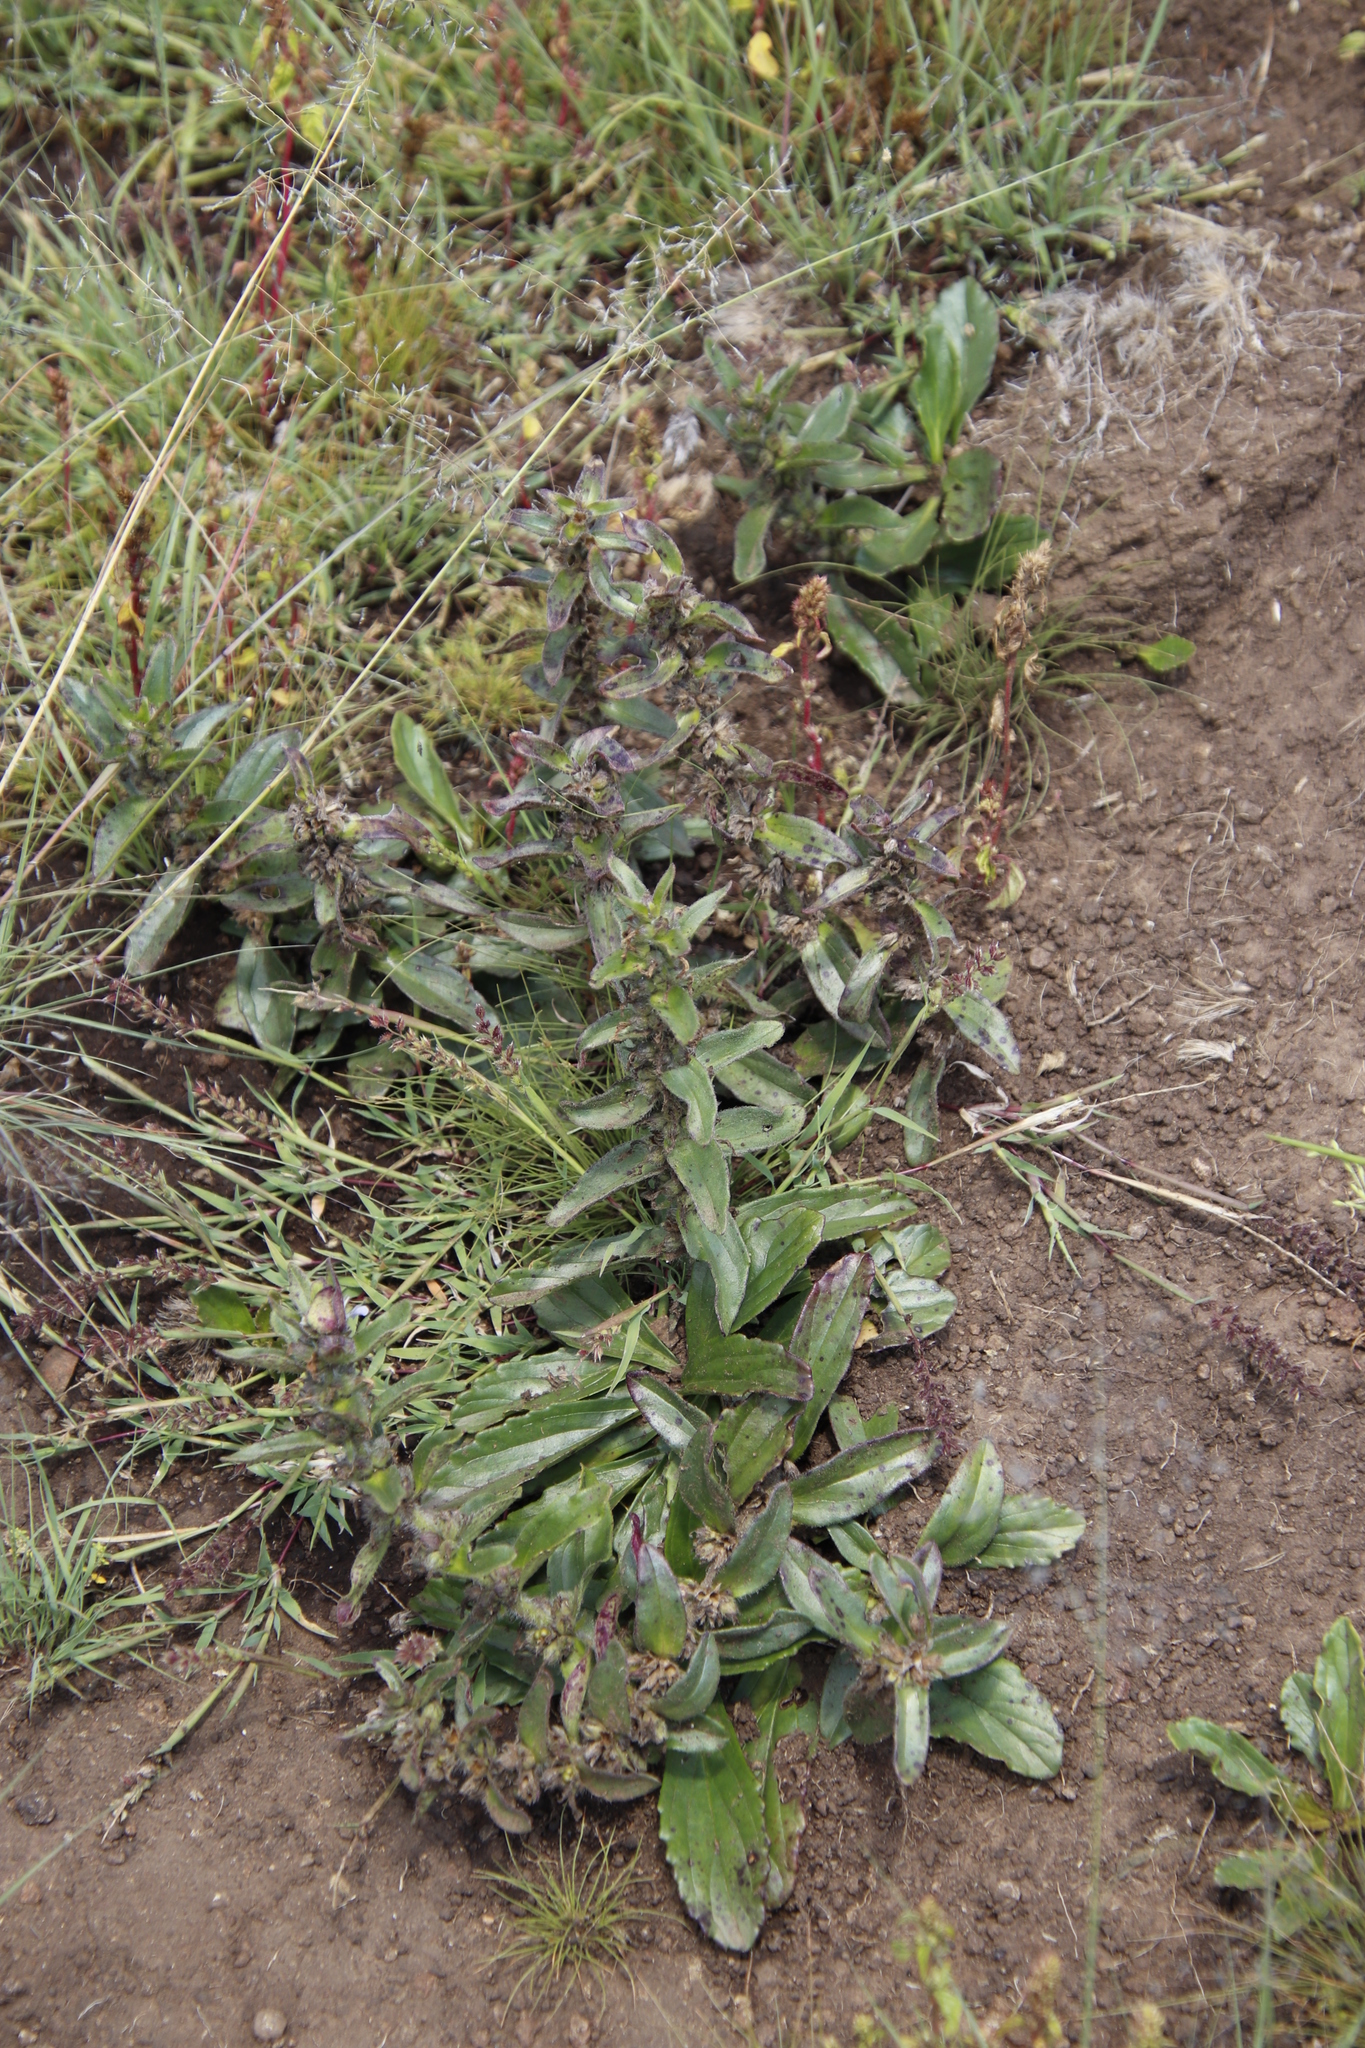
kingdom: Plantae
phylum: Tracheophyta
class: Magnoliopsida
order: Lamiales
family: Lamiaceae
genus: Ajuga
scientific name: Ajuga ophrydis
